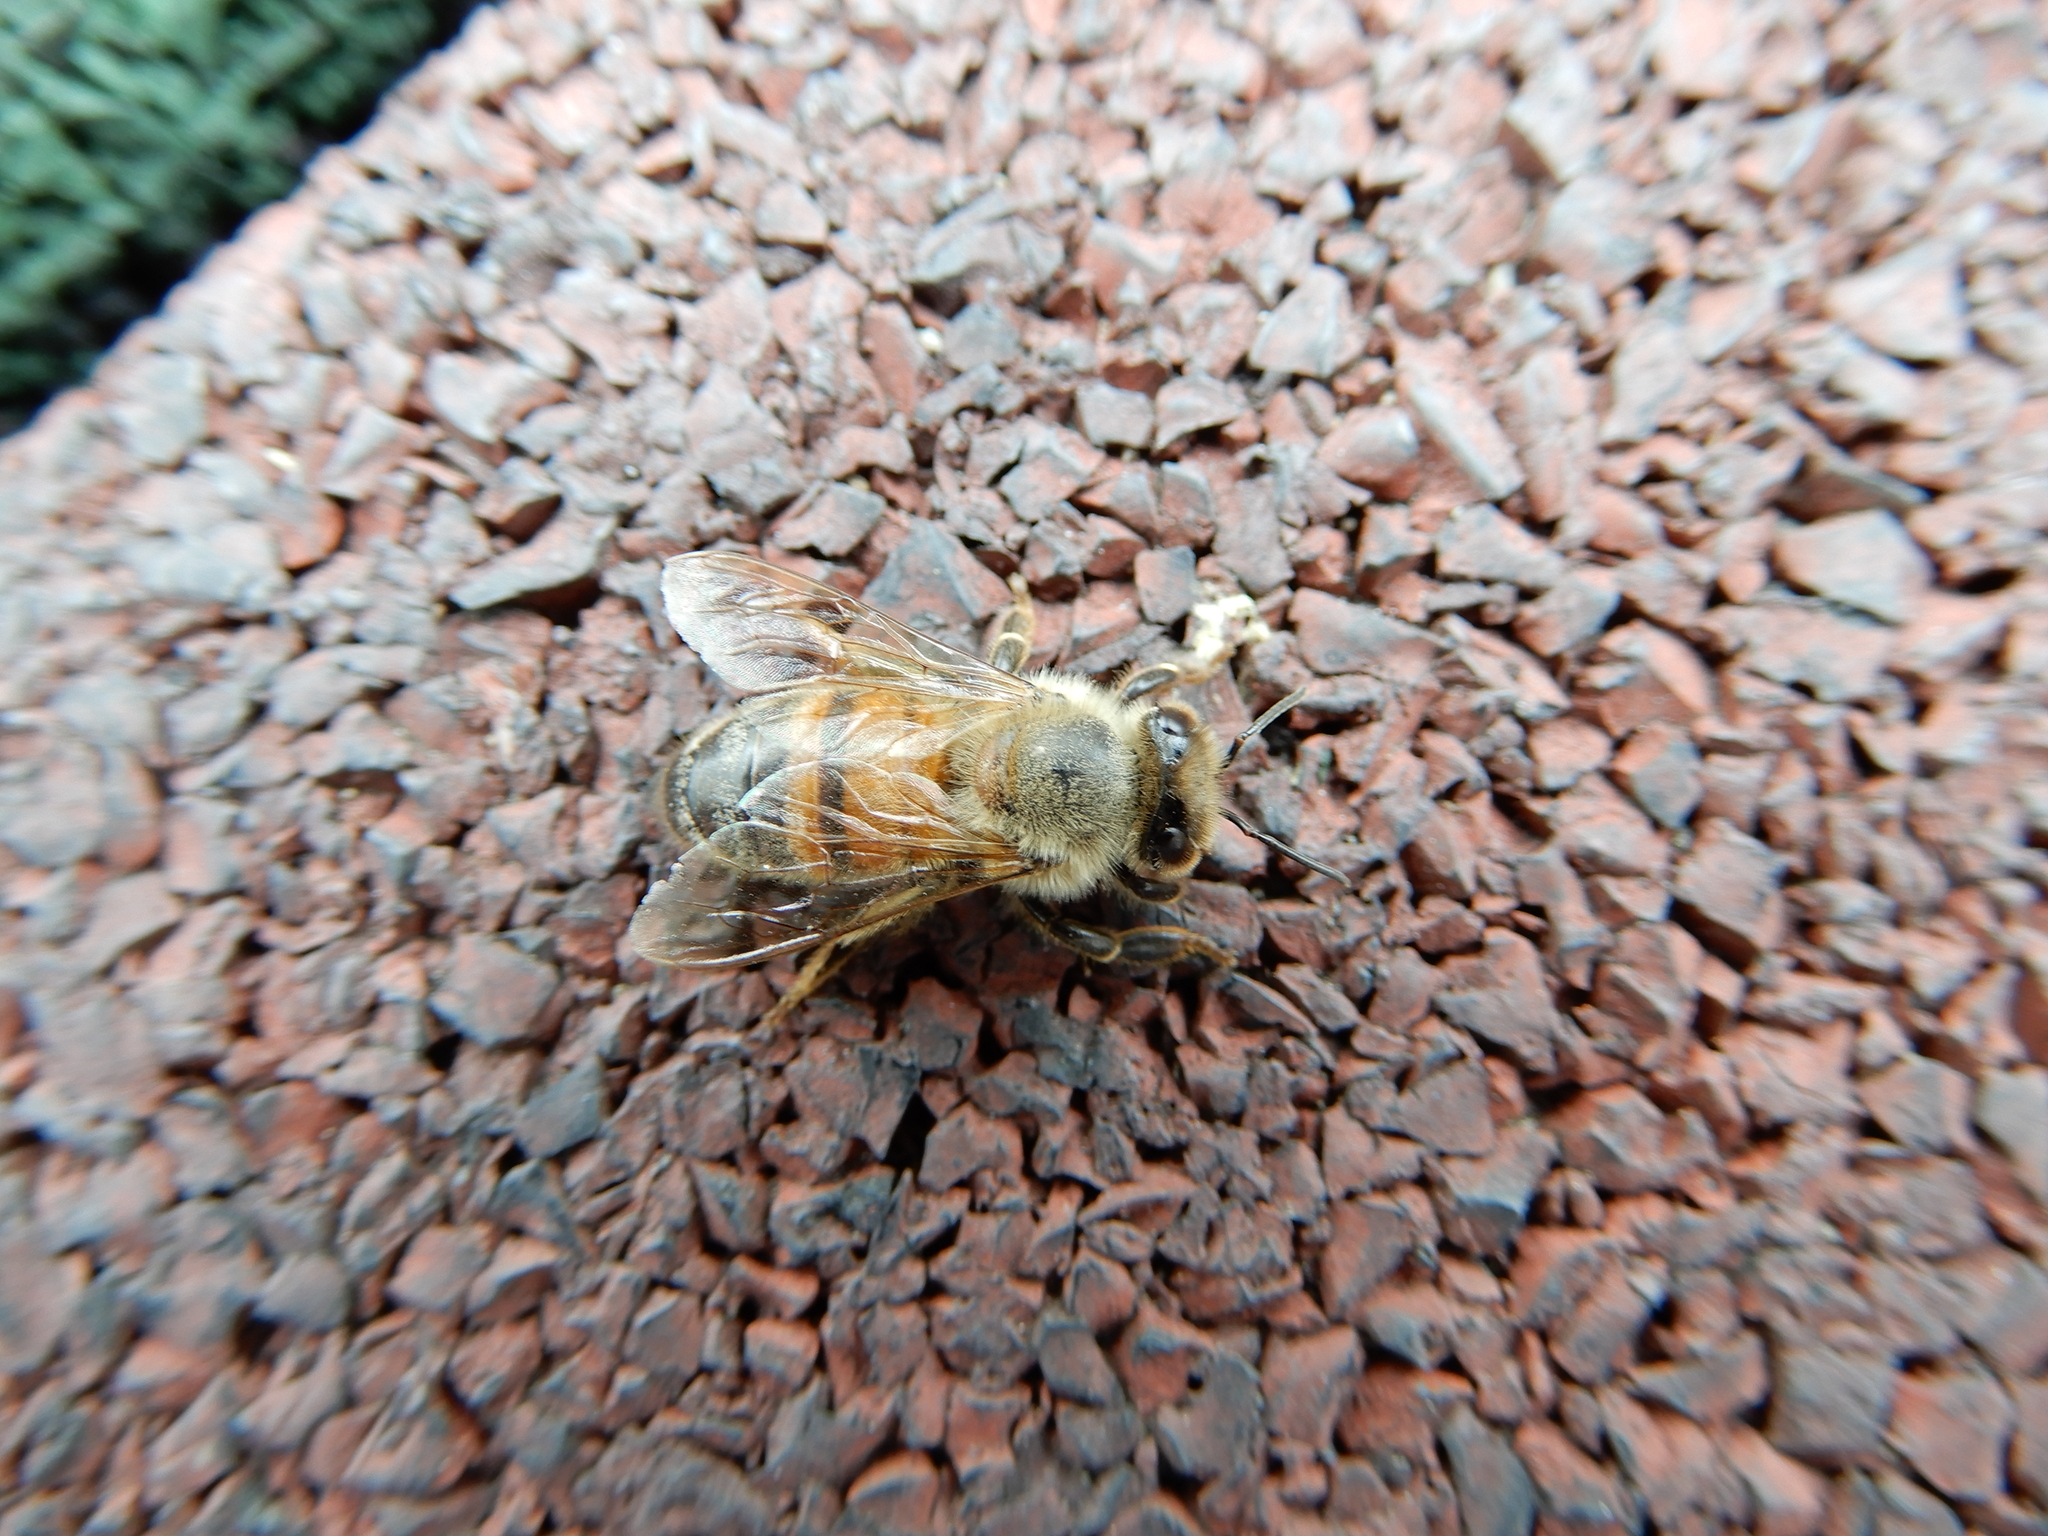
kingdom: Animalia
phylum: Arthropoda
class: Insecta
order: Hymenoptera
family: Apidae
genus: Apis
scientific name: Apis mellifera
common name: Honey bee
